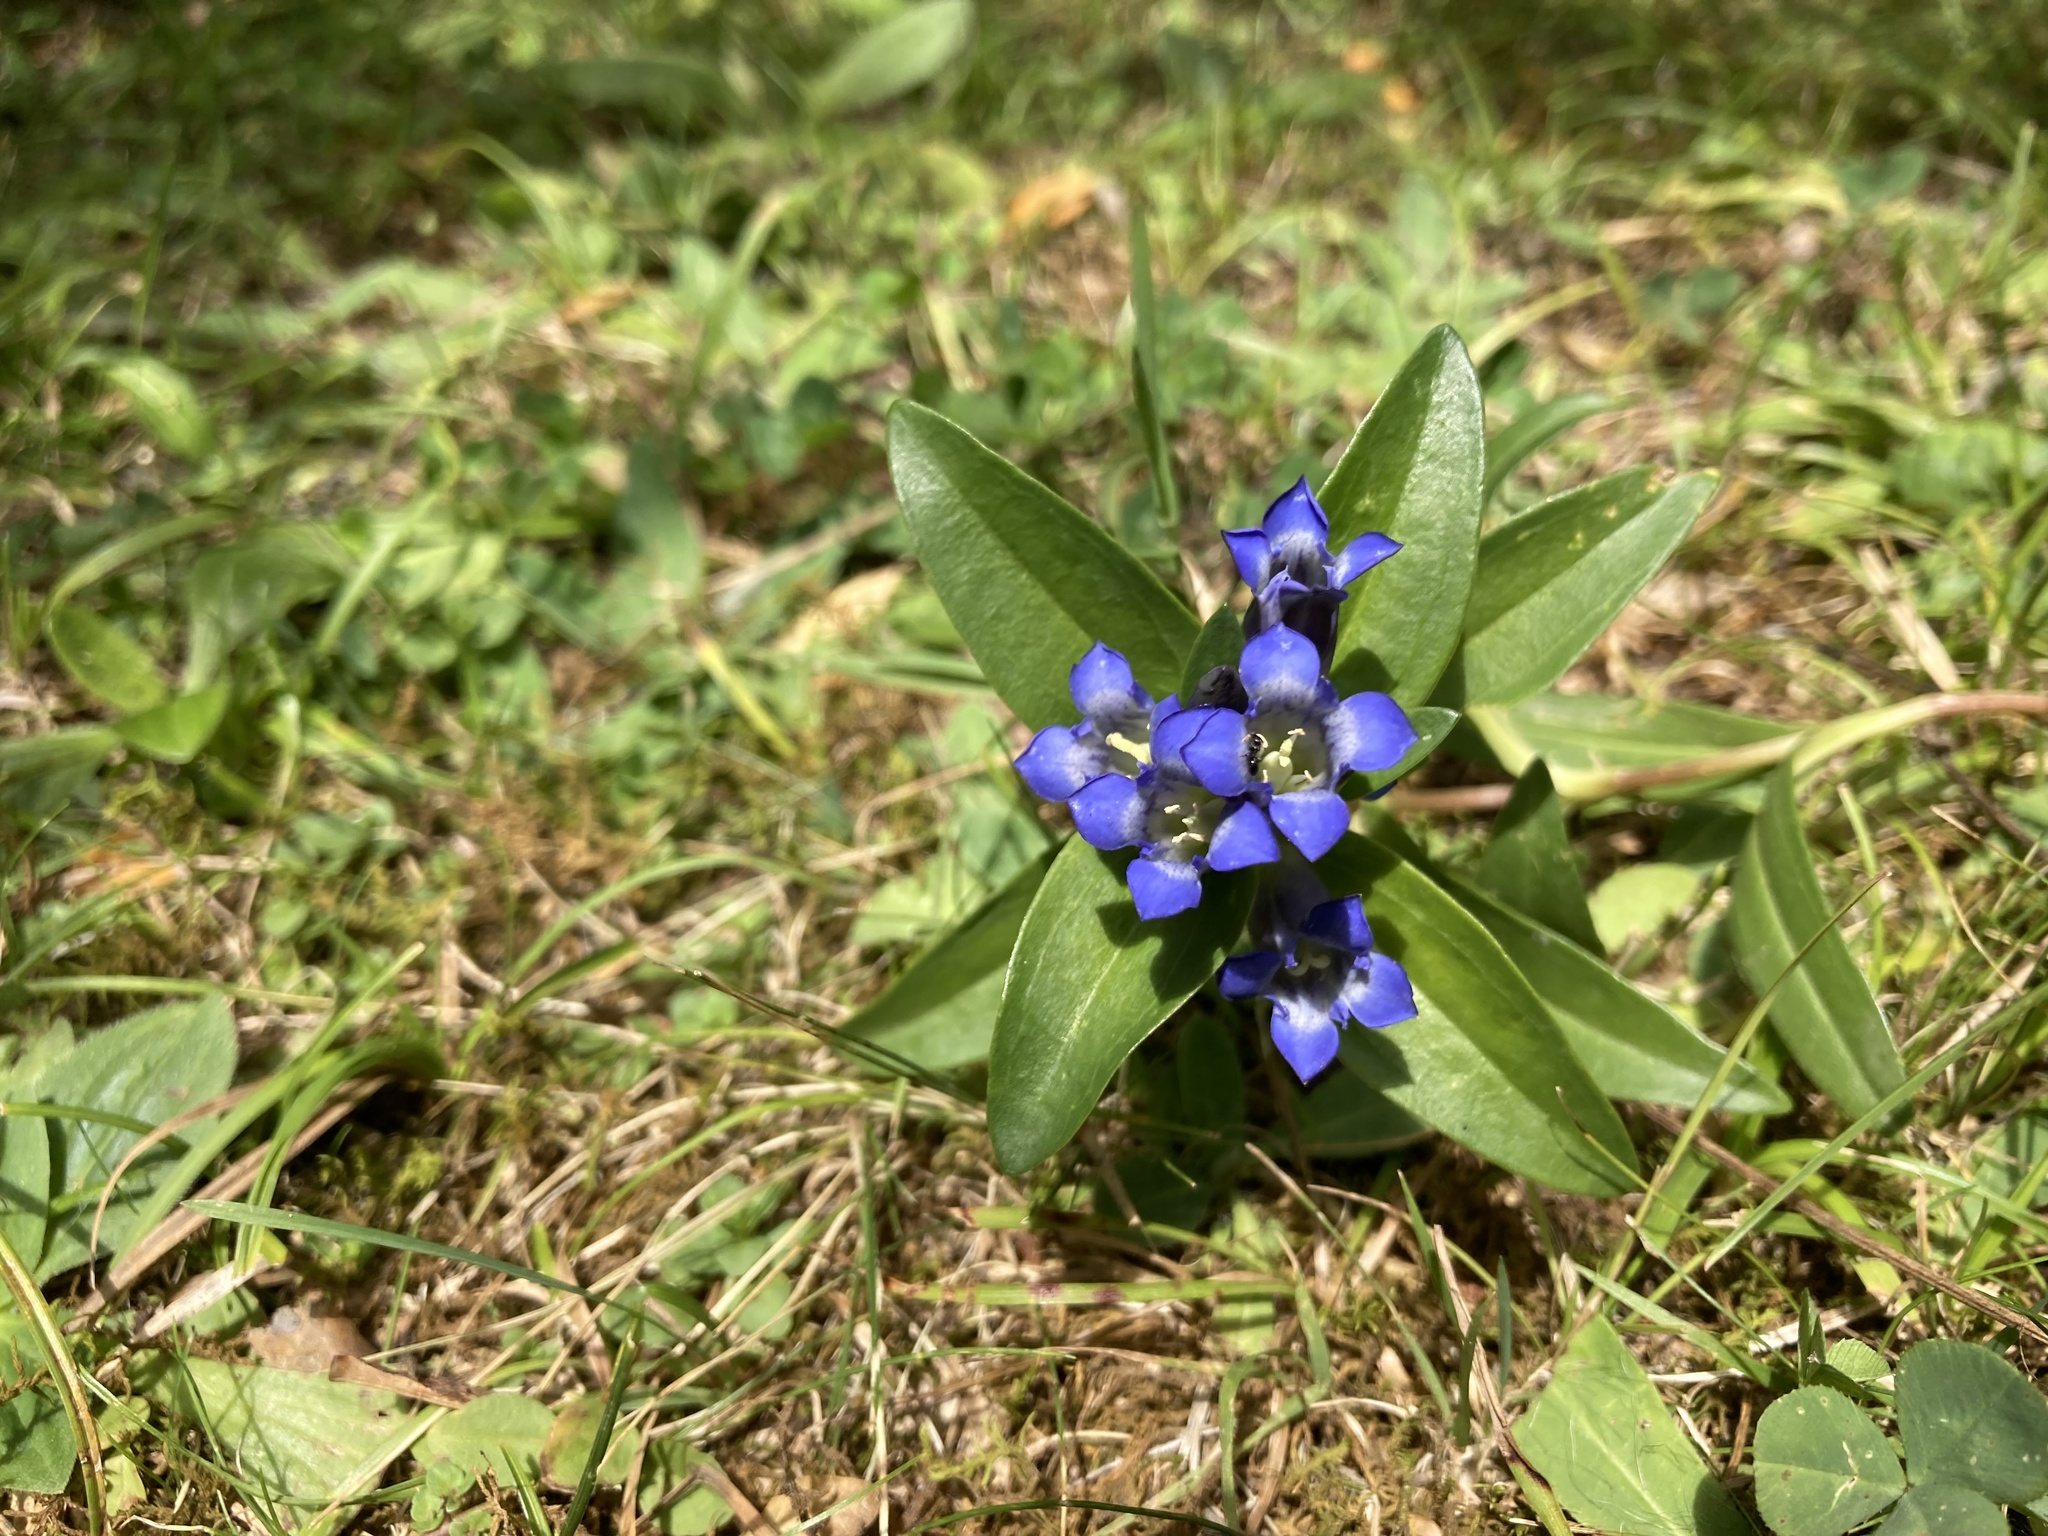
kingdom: Plantae
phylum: Tracheophyta
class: Magnoliopsida
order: Gentianales
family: Gentianaceae
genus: Gentiana
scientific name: Gentiana cruciata
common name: Cross gentian
